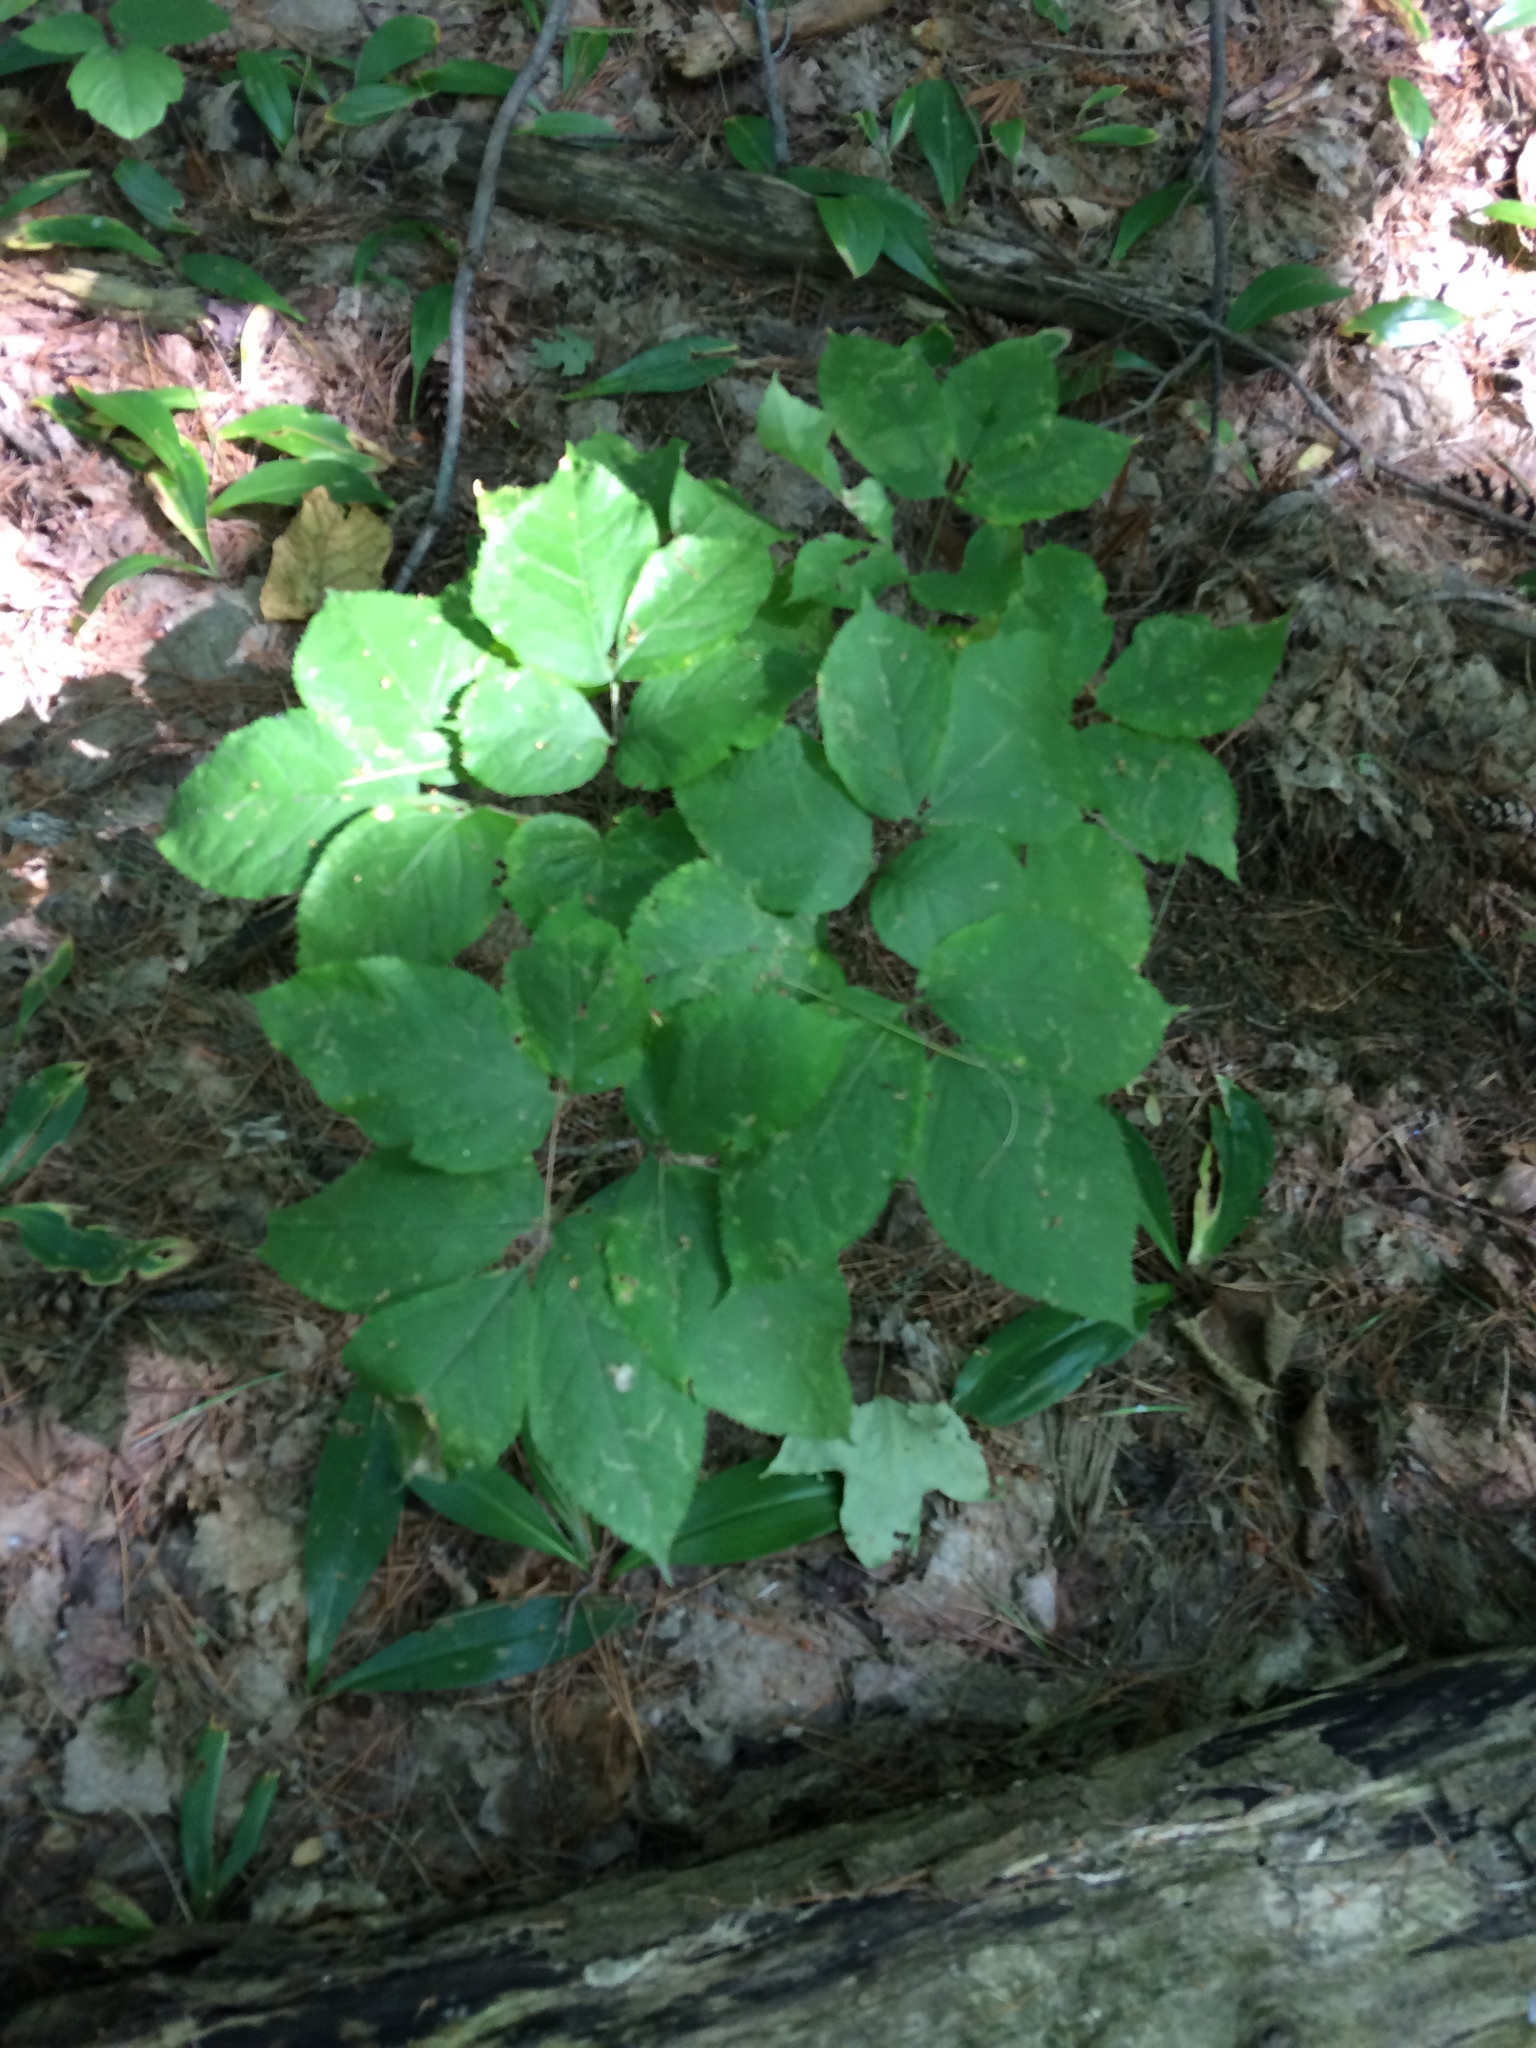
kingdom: Plantae
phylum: Tracheophyta
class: Magnoliopsida
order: Apiales
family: Araliaceae
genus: Aralia
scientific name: Aralia nudicaulis
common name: Wild sarsaparilla
